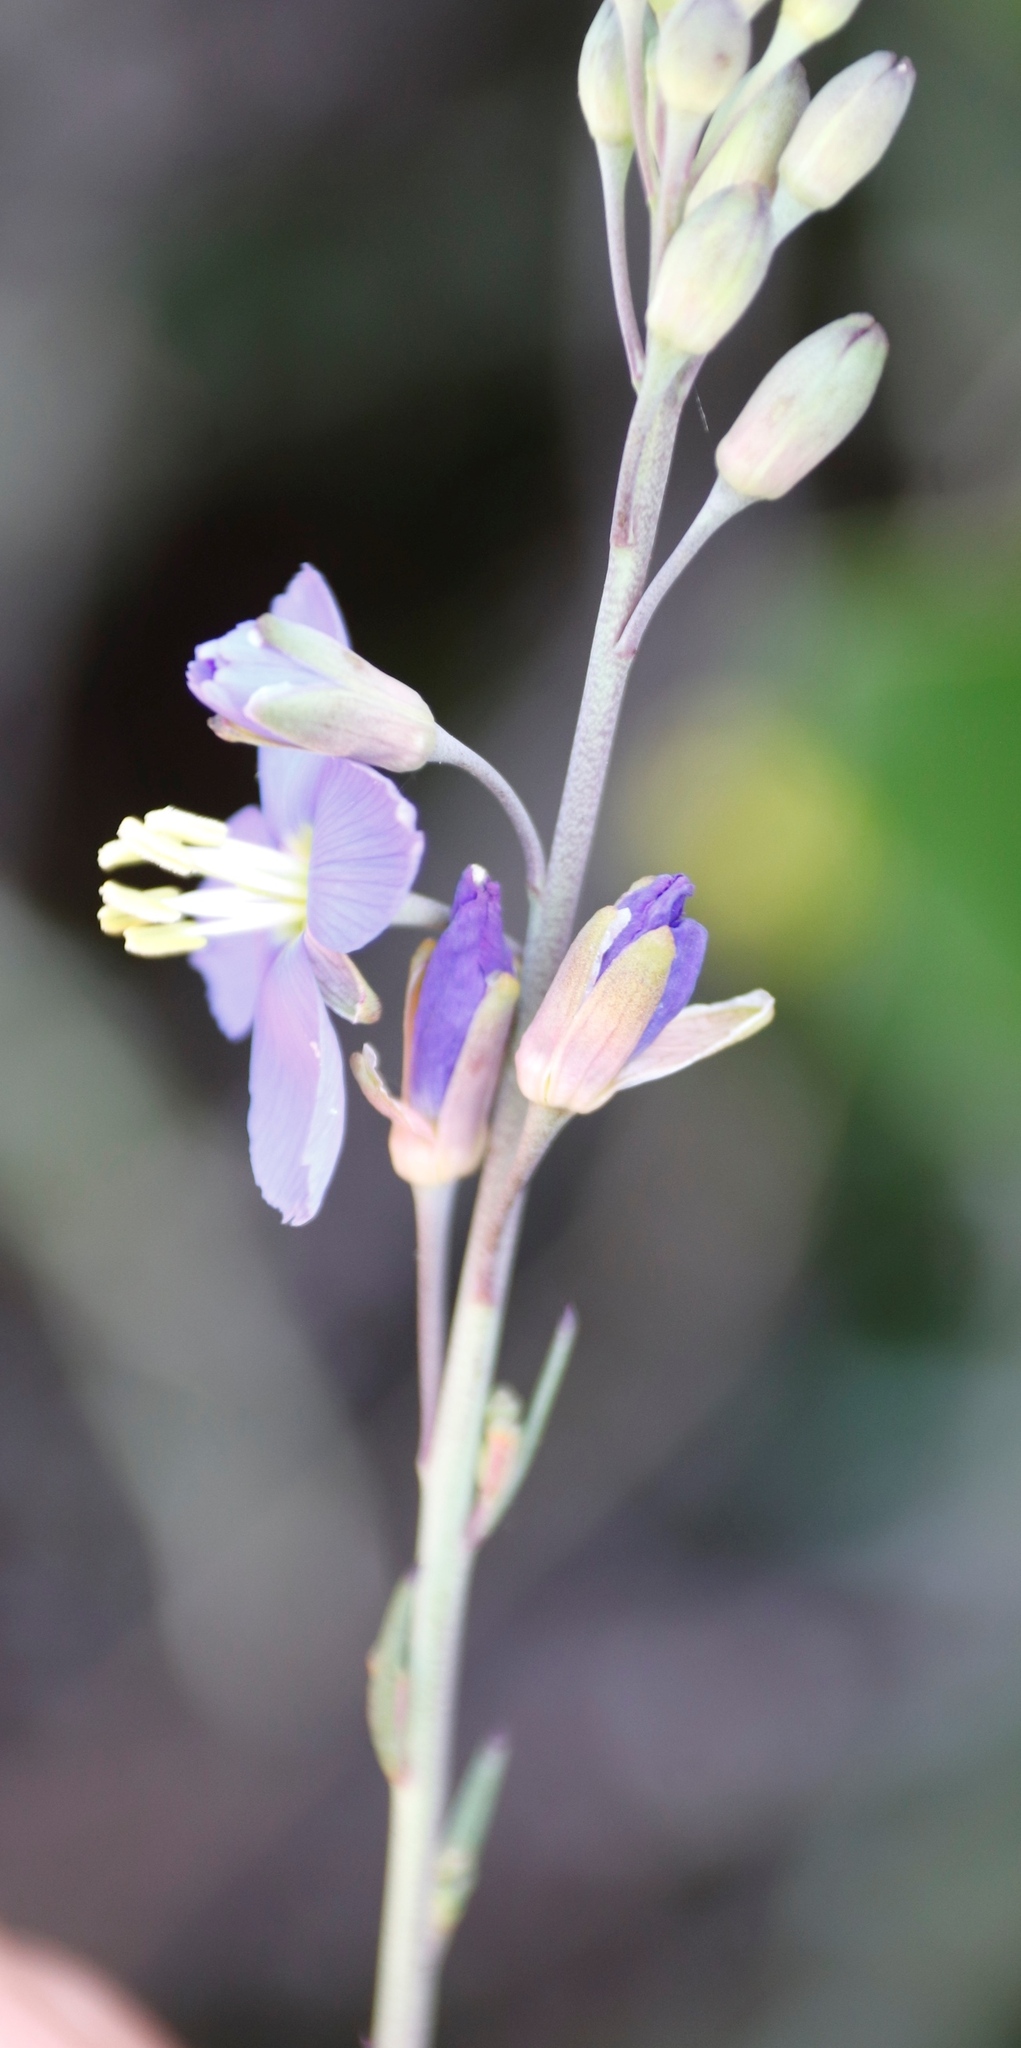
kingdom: Plantae
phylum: Tracheophyta
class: Magnoliopsida
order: Brassicales
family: Brassicaceae
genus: Heliophila
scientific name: Heliophila linearis
